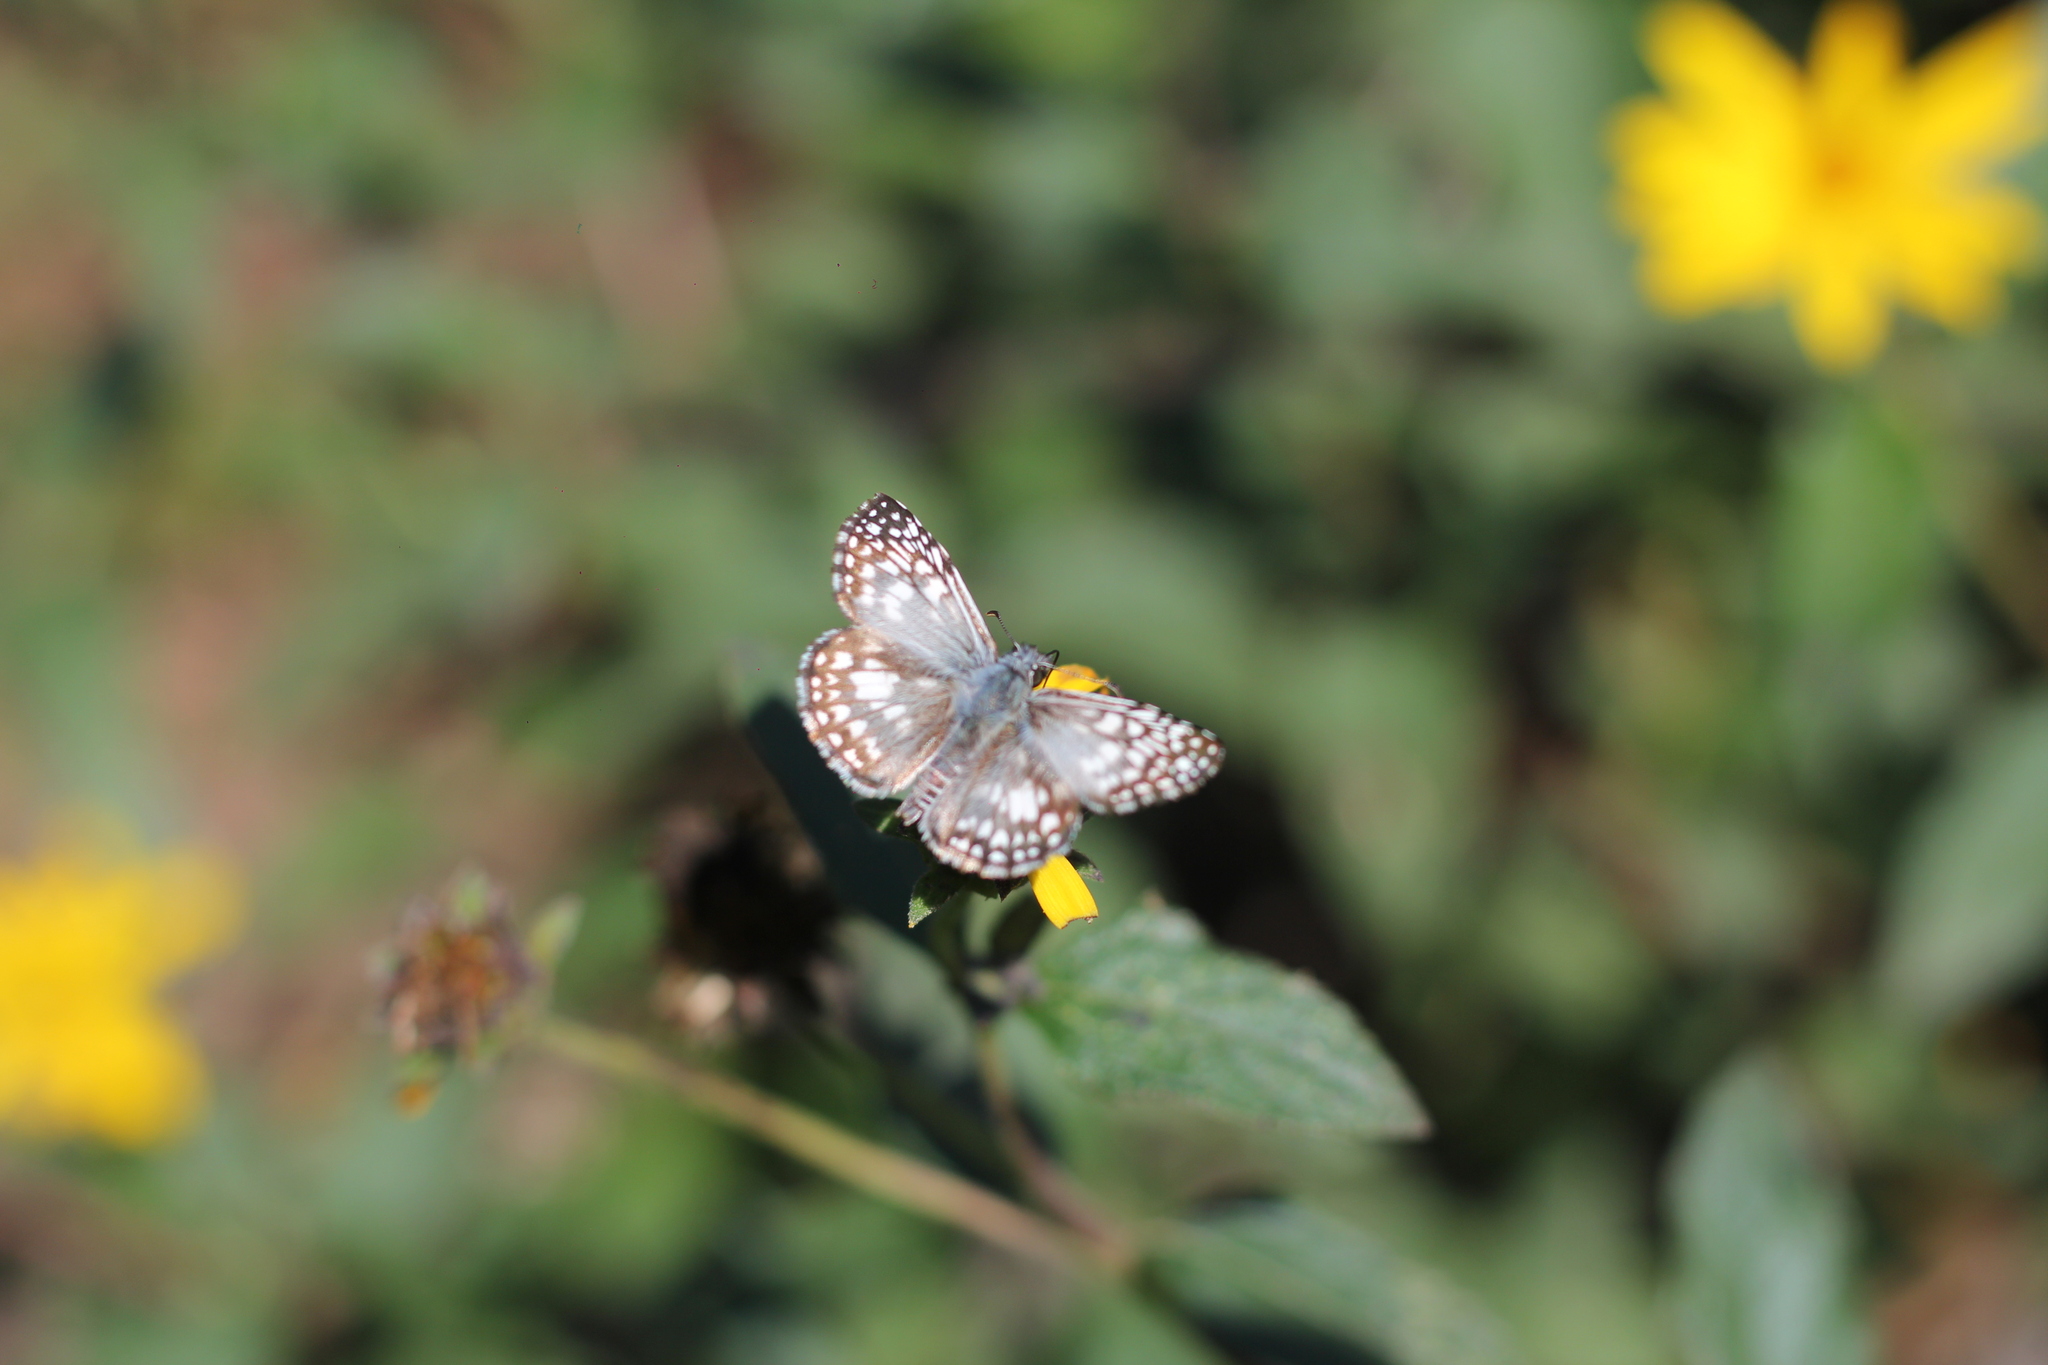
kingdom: Animalia
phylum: Arthropoda
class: Insecta
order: Lepidoptera
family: Hesperiidae
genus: Pyrgus
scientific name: Pyrgus oileus
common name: Tropical checkered-skipper
